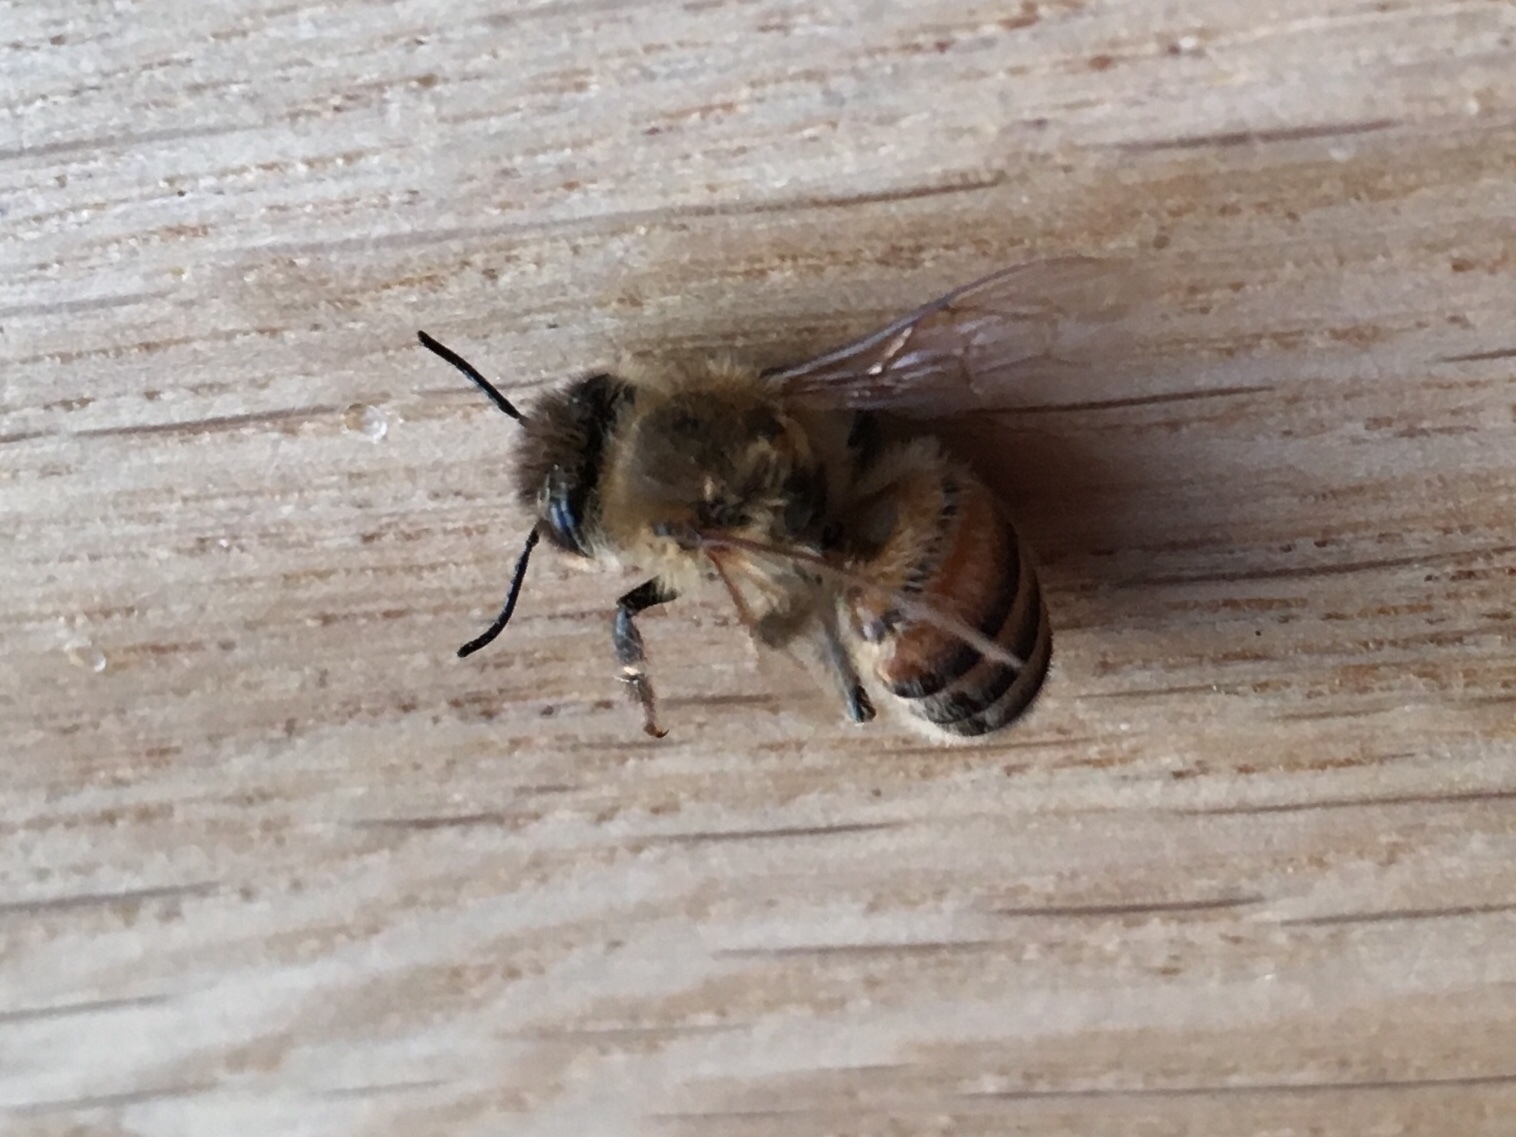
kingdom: Animalia
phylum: Arthropoda
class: Insecta
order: Hymenoptera
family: Apidae
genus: Apis
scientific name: Apis mellifera
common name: Honey bee
